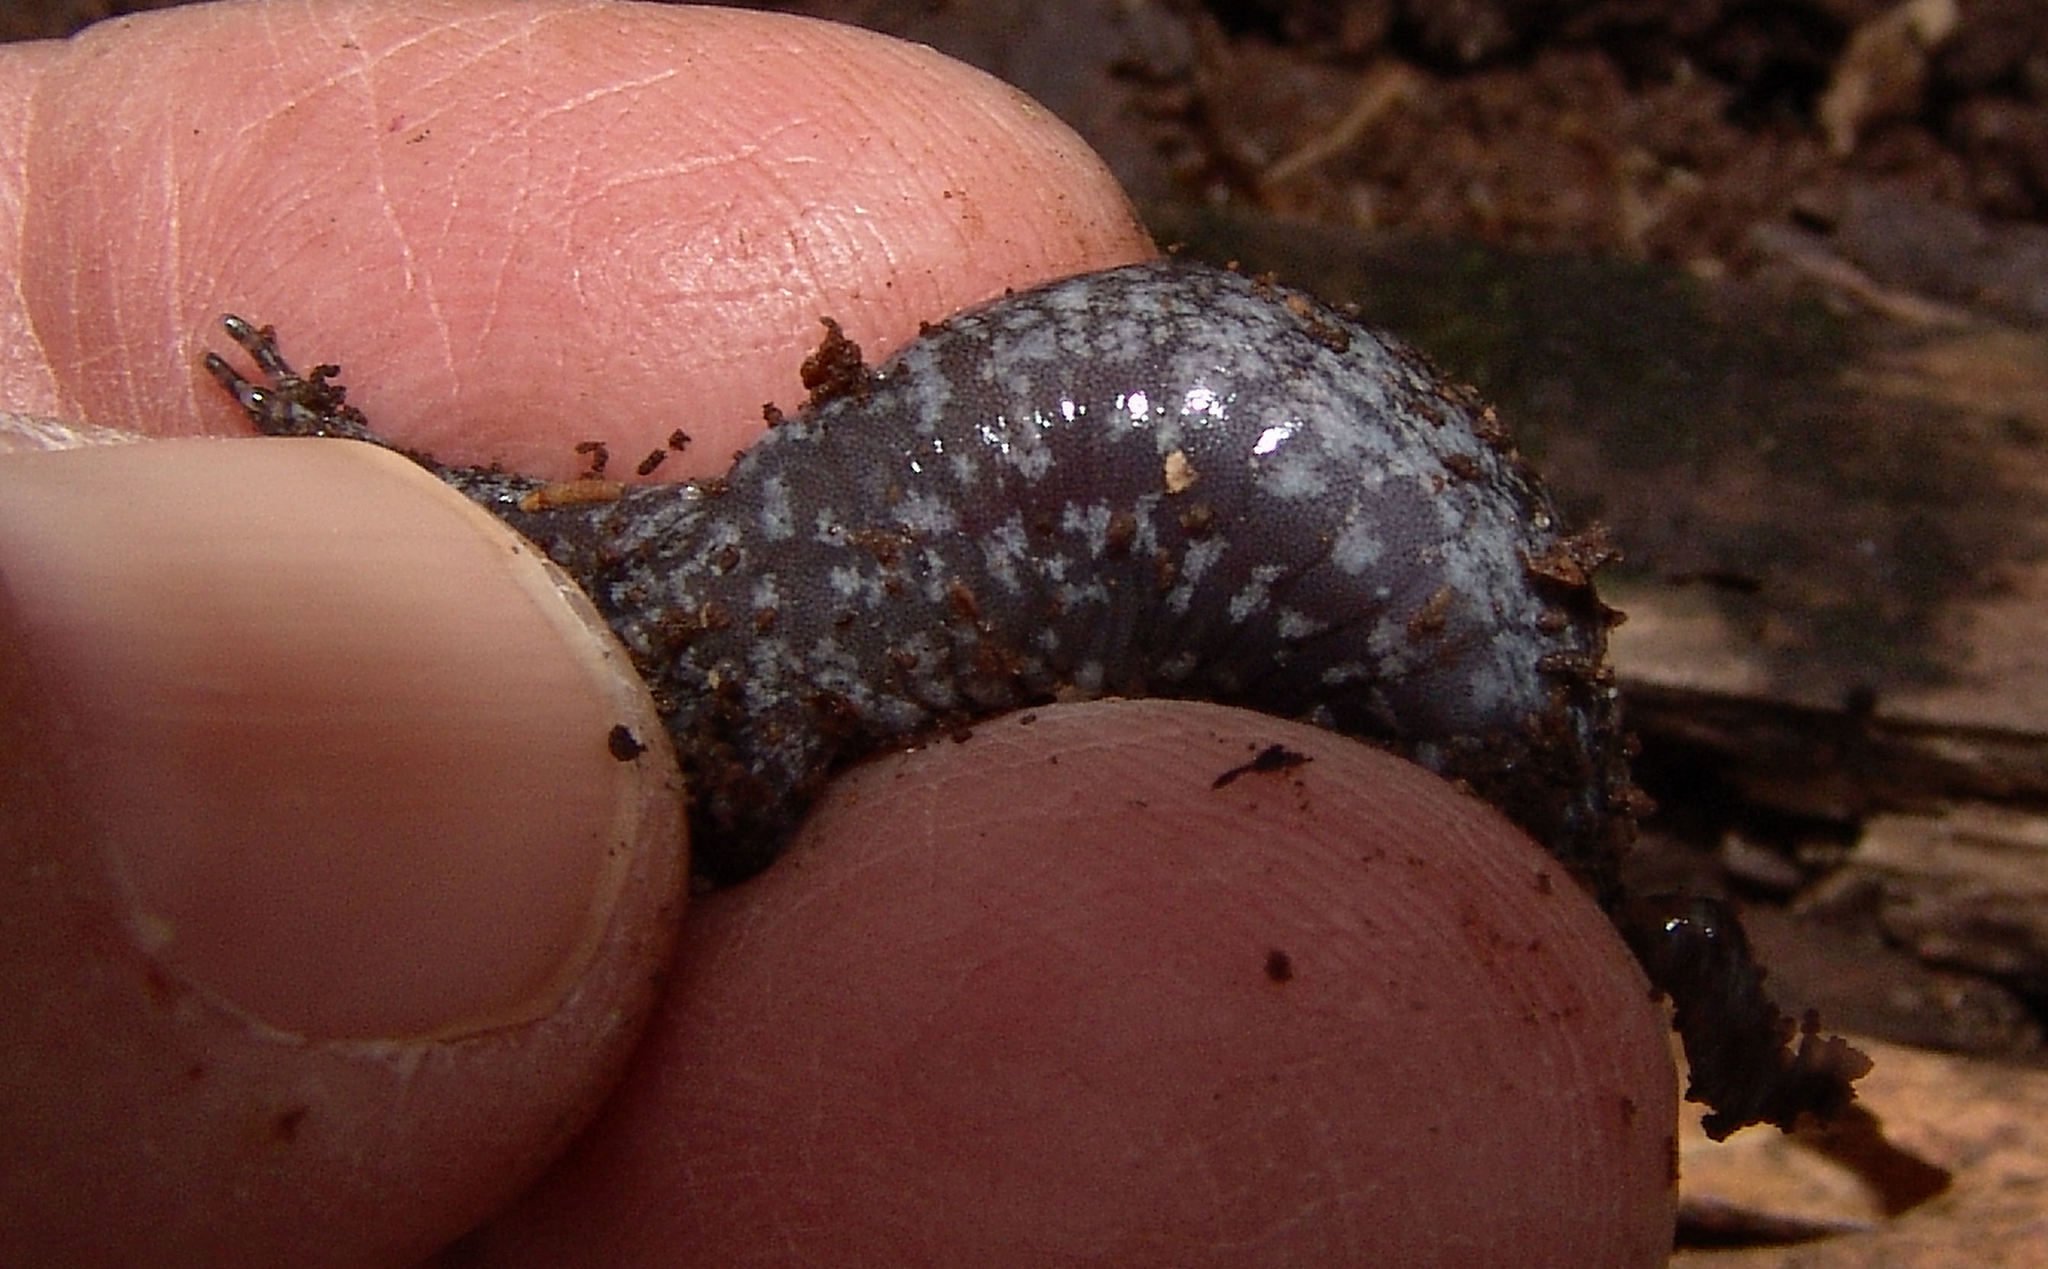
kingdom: Animalia
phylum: Chordata
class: Amphibia
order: Caudata
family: Ambystomatidae
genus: Ambystoma
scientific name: Ambystoma texanum
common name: Small-mouth salamander
